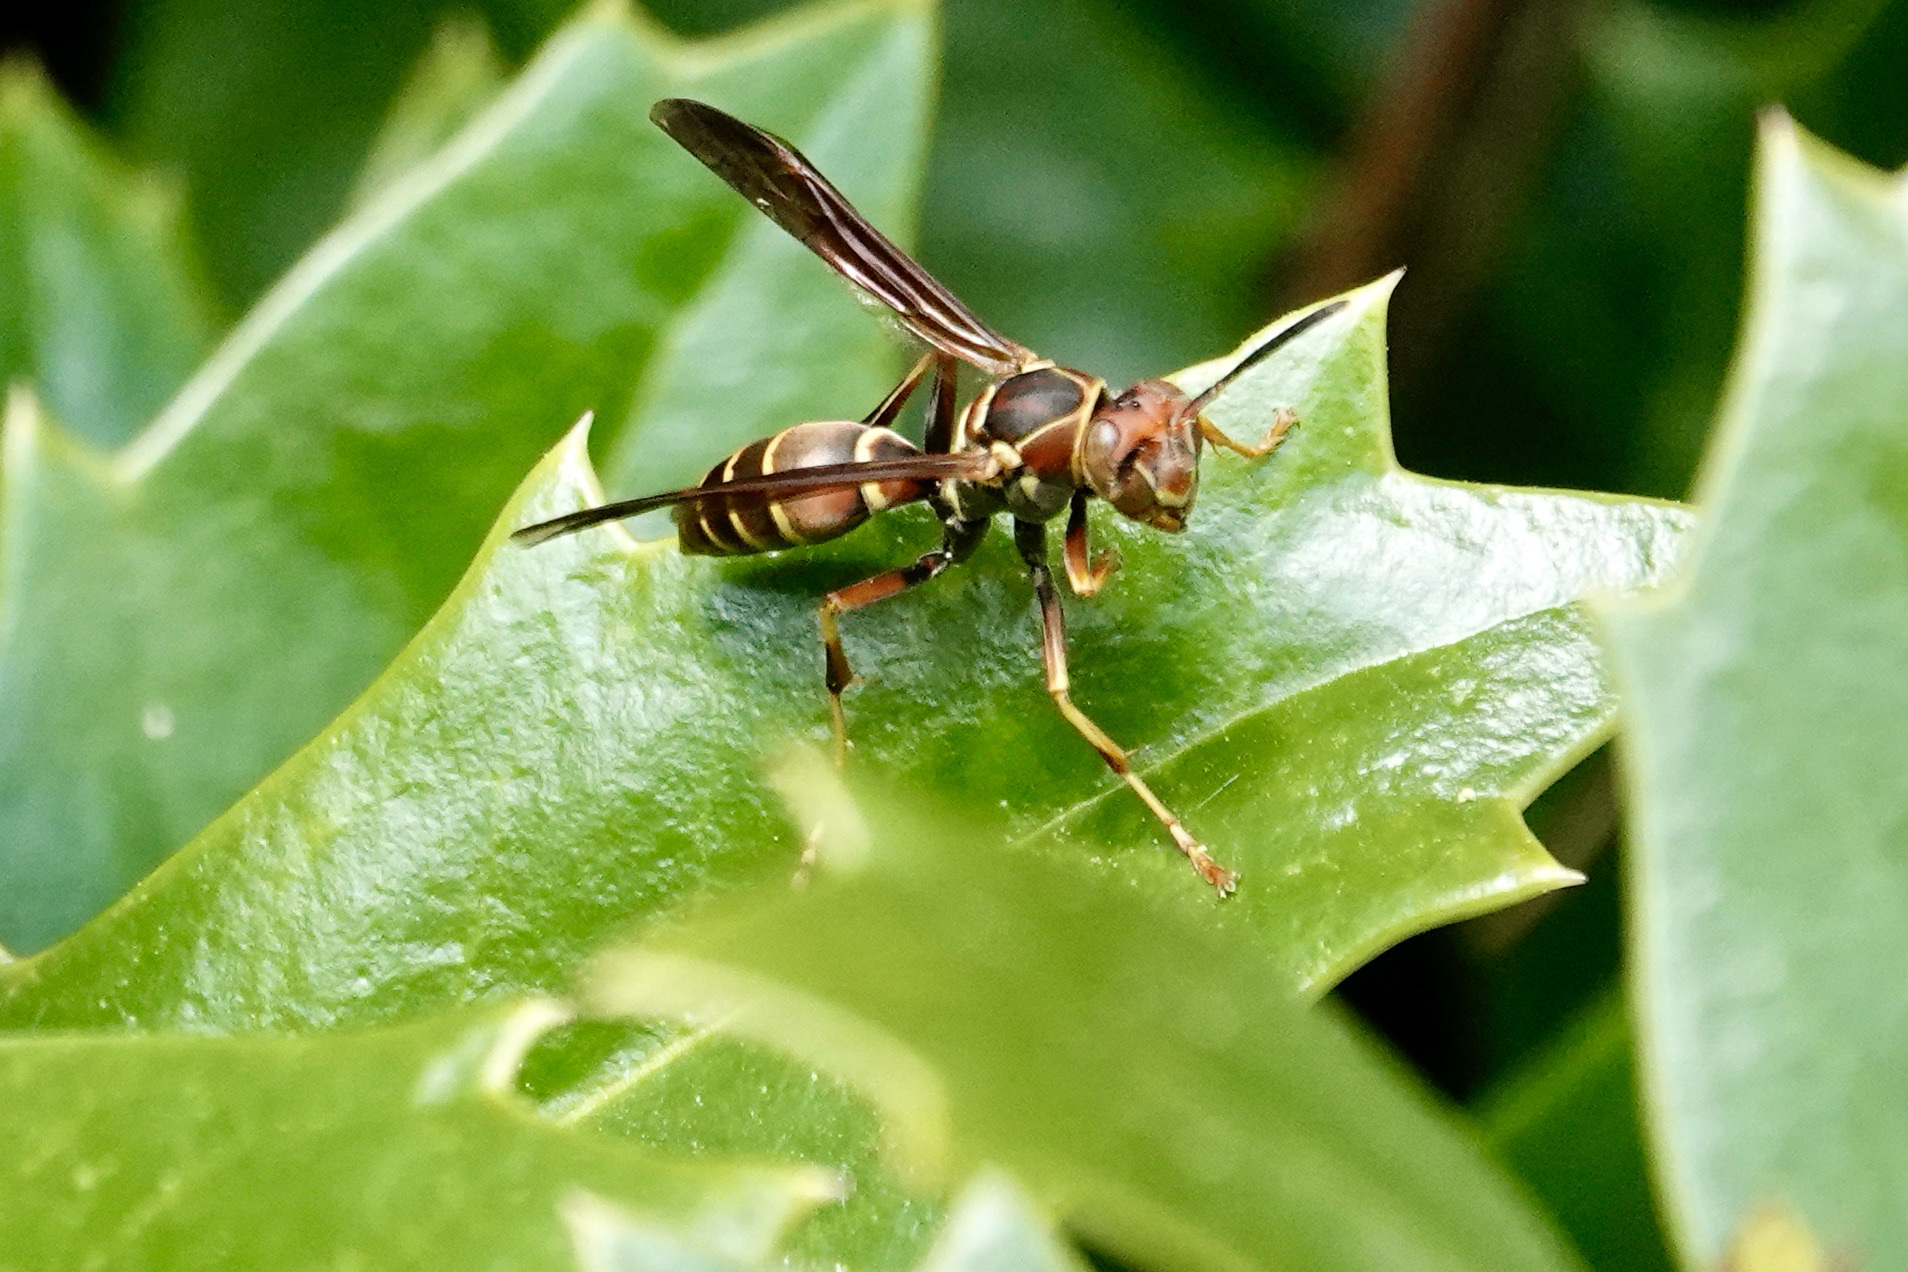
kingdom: Animalia
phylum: Arthropoda
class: Insecta
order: Hymenoptera
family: Eumenidae
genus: Polistes
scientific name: Polistes dorsalis
